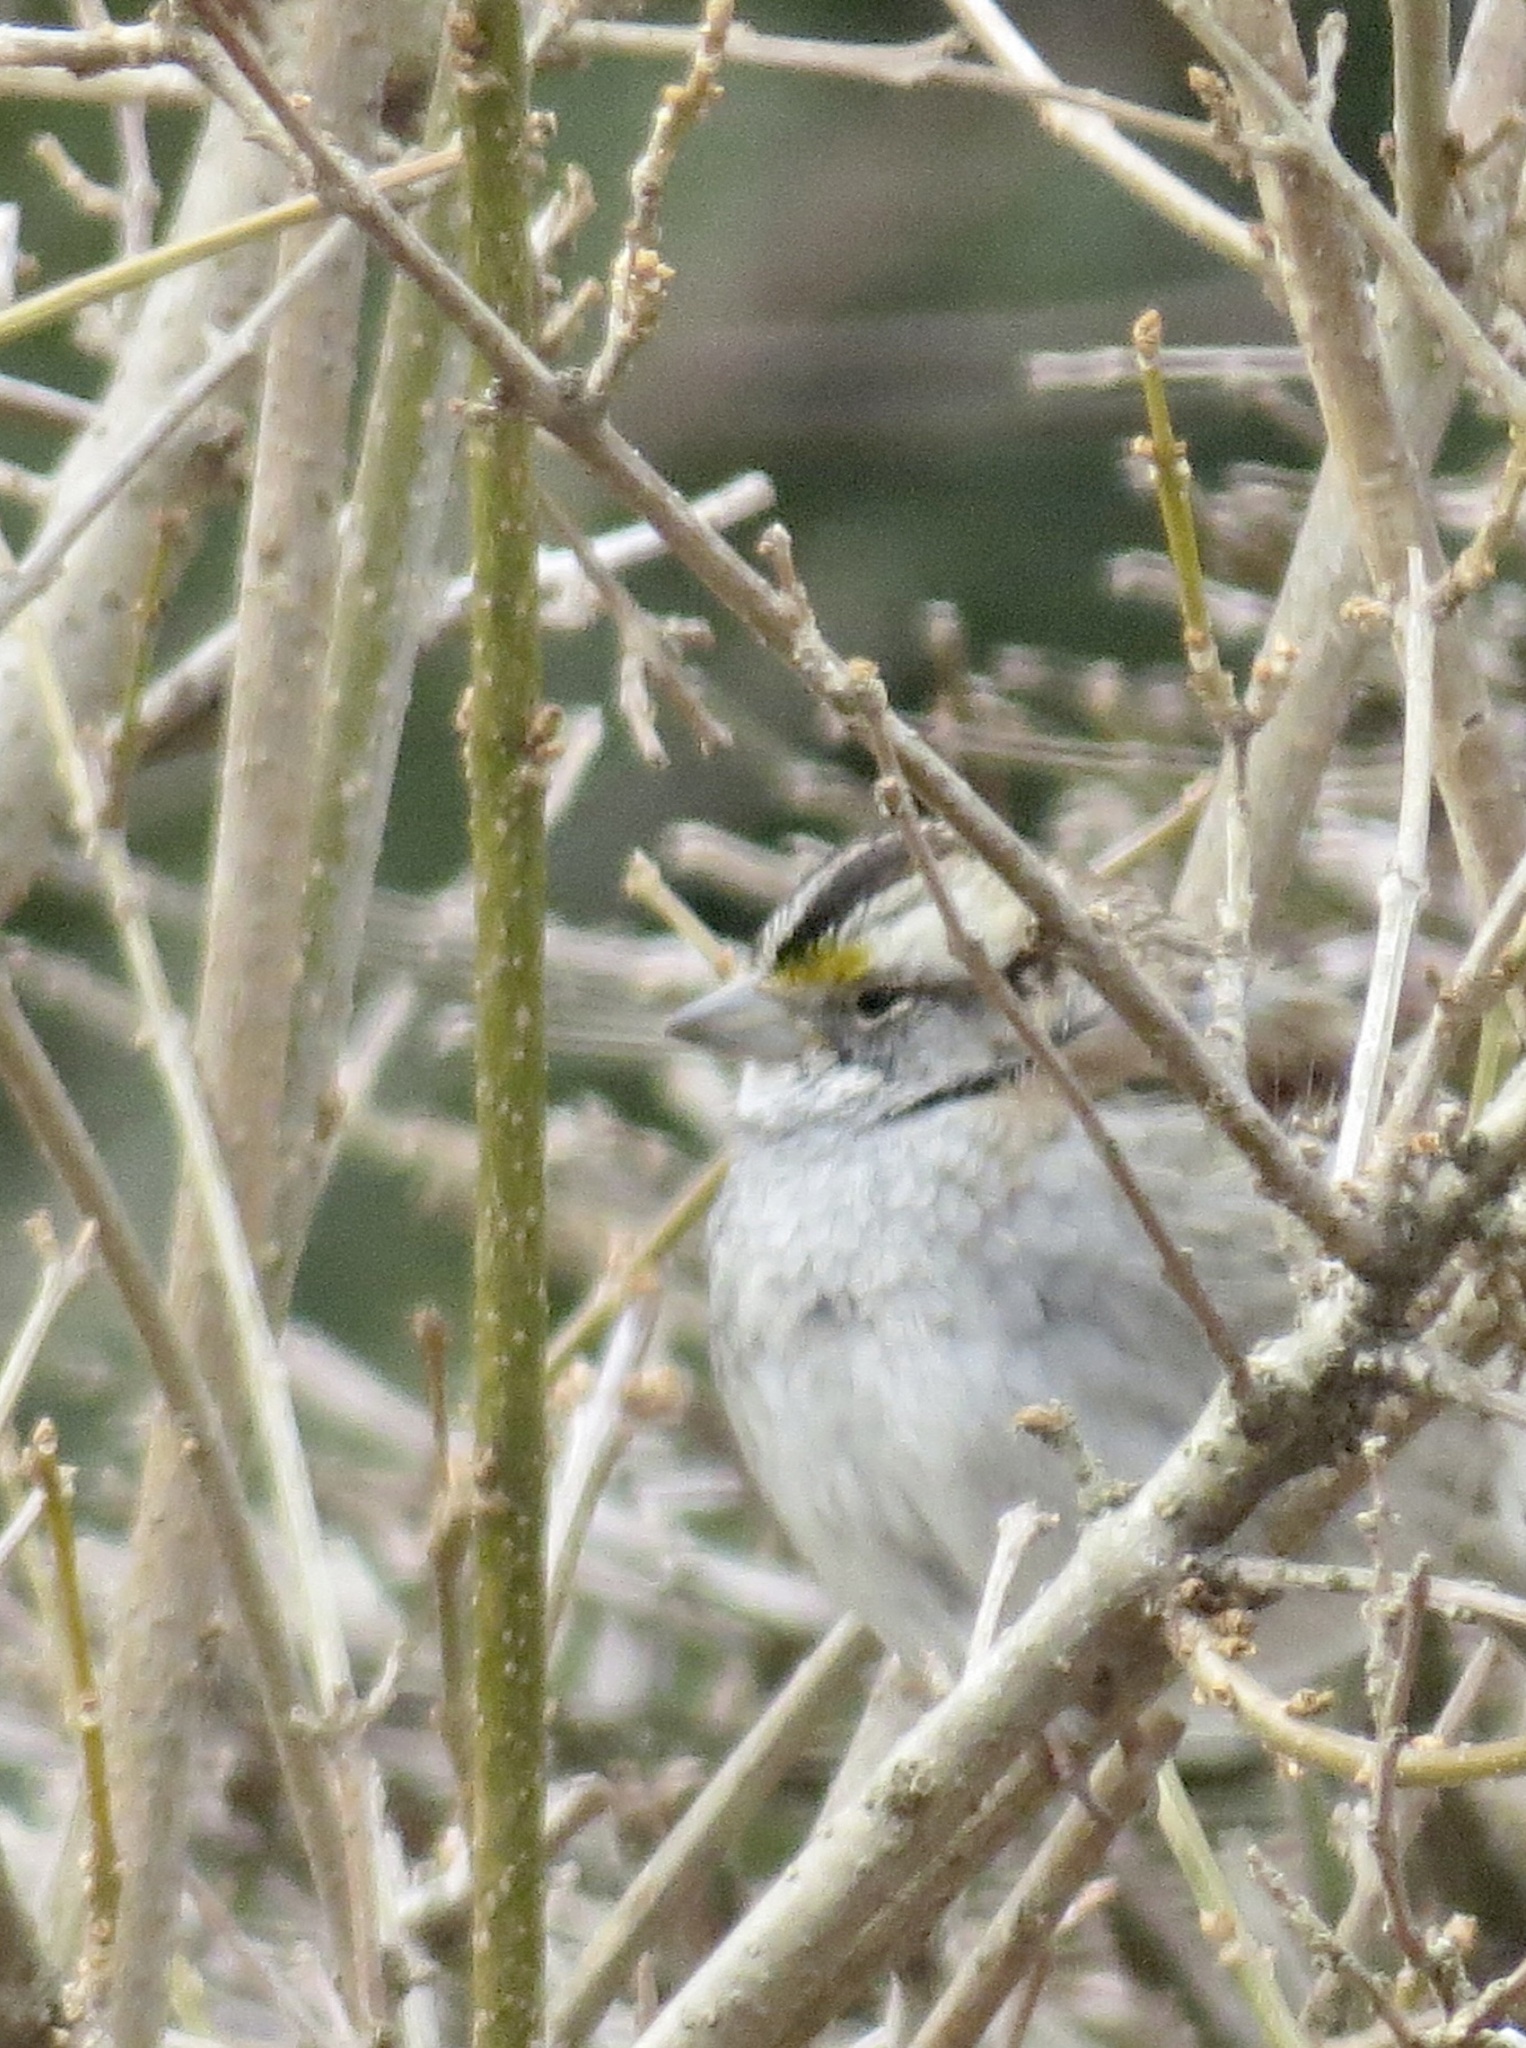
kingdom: Animalia
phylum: Chordata
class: Aves
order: Passeriformes
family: Passerellidae
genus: Zonotrichia
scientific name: Zonotrichia albicollis
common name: White-throated sparrow
